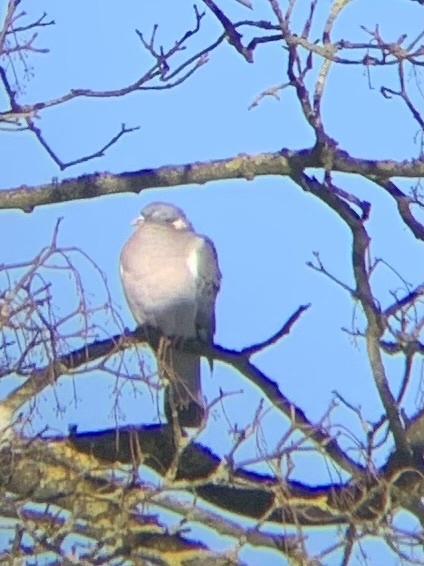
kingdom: Animalia
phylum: Chordata
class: Aves
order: Columbiformes
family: Columbidae
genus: Columba
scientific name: Columba palumbus
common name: Common wood pigeon
